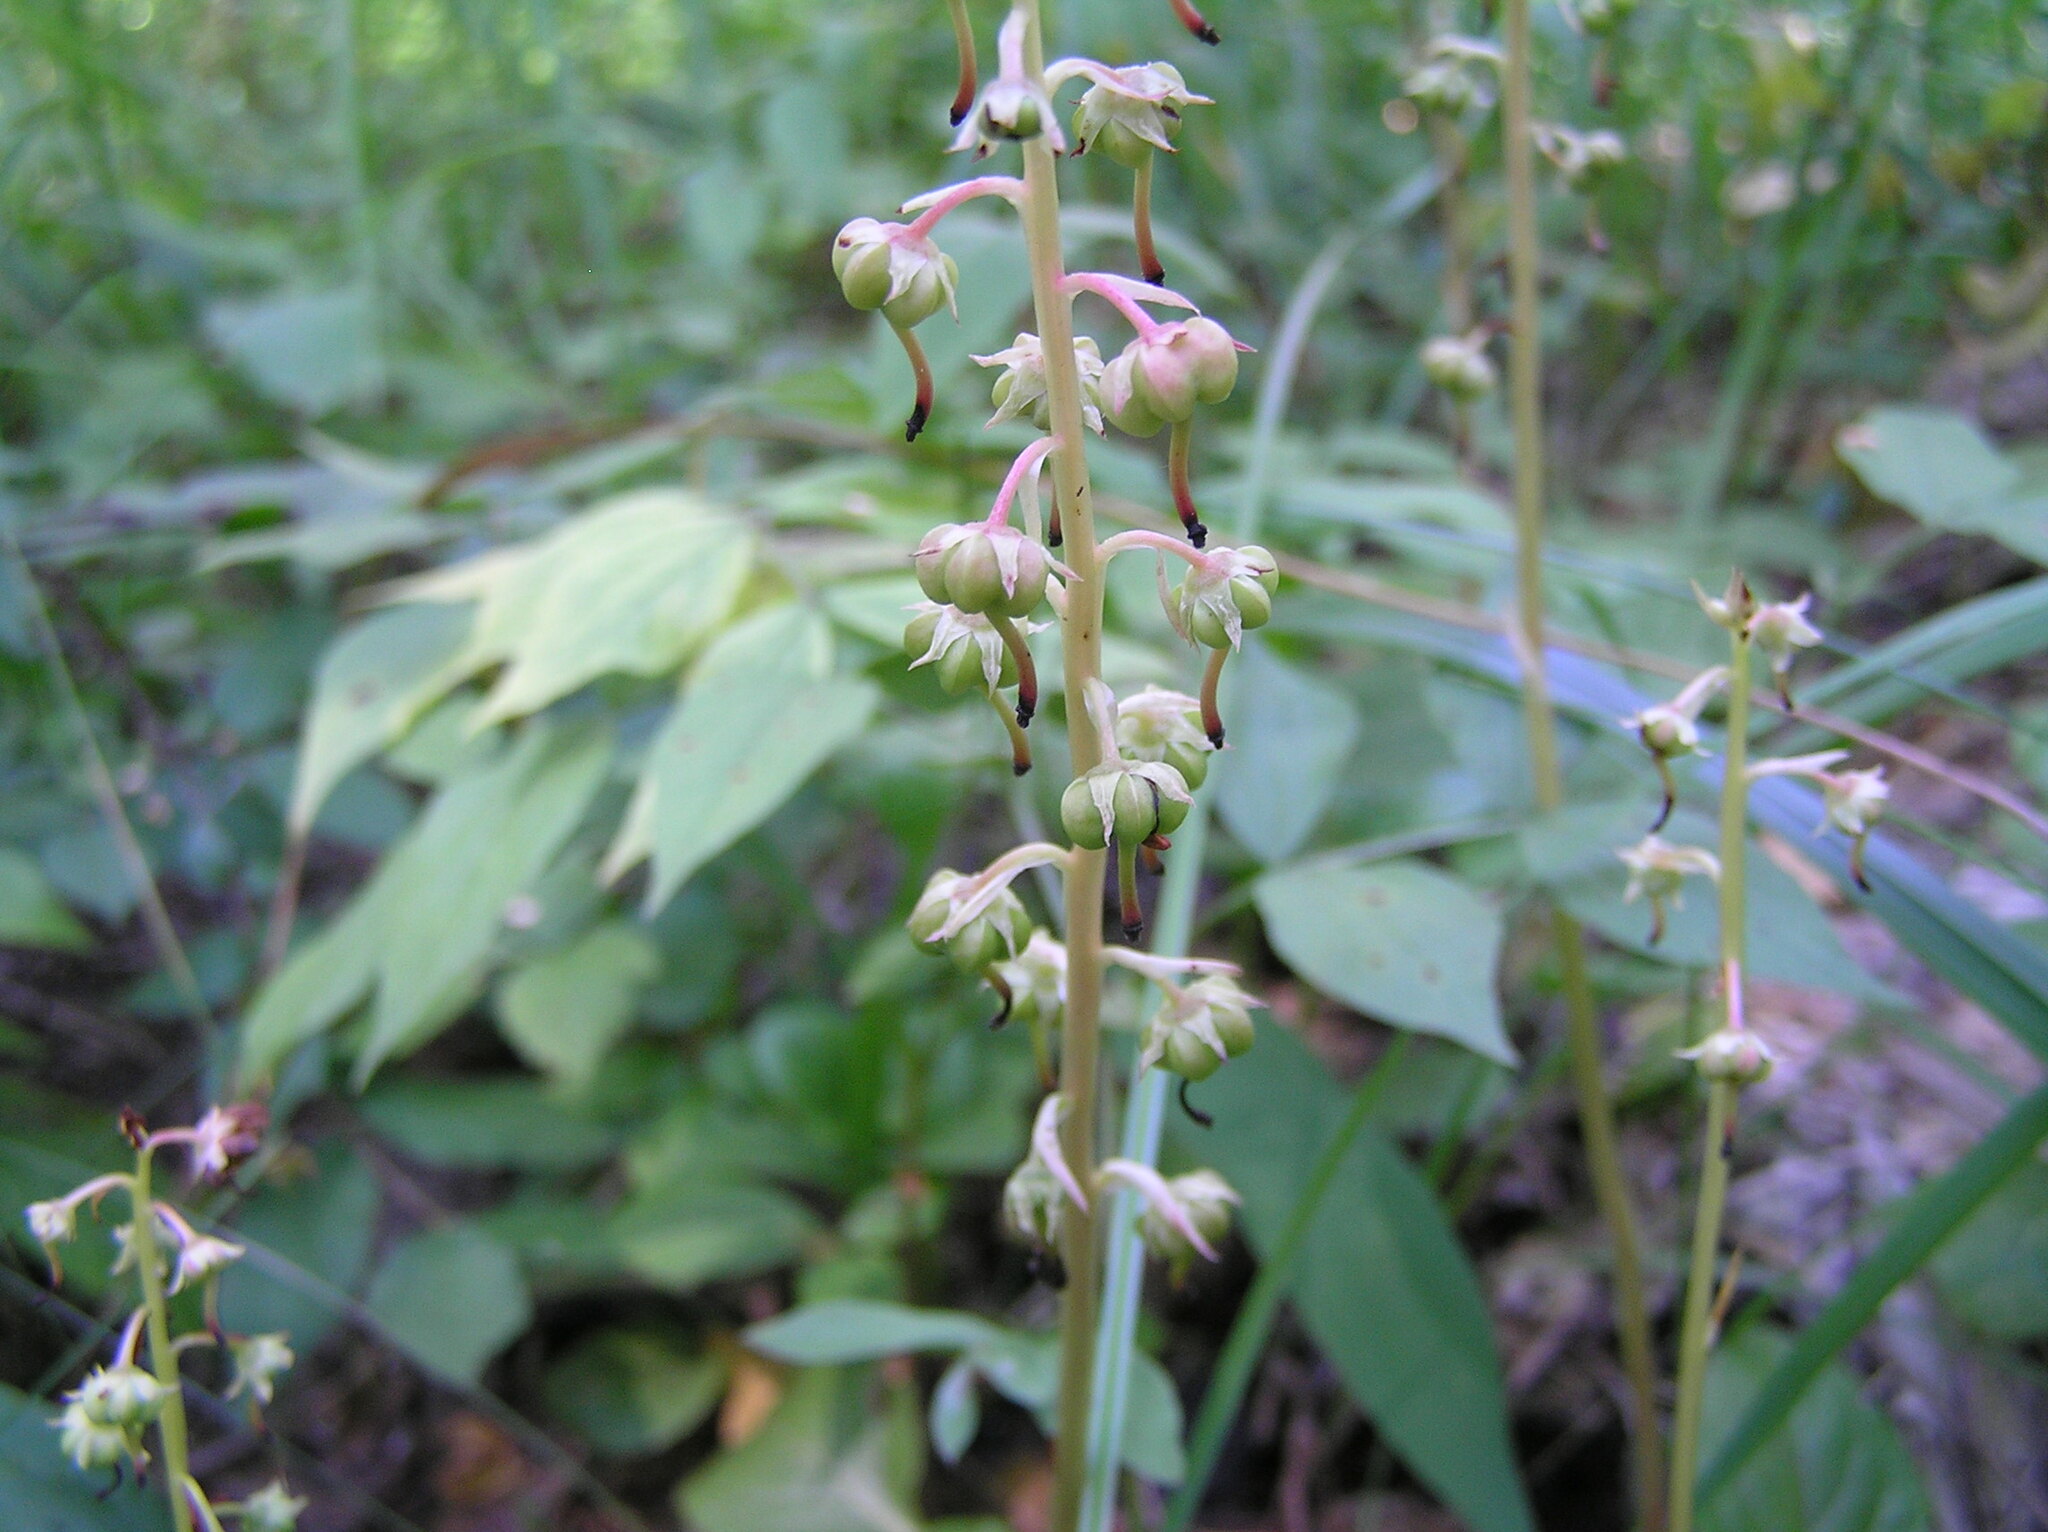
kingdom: Plantae
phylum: Tracheophyta
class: Magnoliopsida
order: Ericales
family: Ericaceae
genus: Pyrola
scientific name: Pyrola rotundifolia
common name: Round-leaved wintergreen
